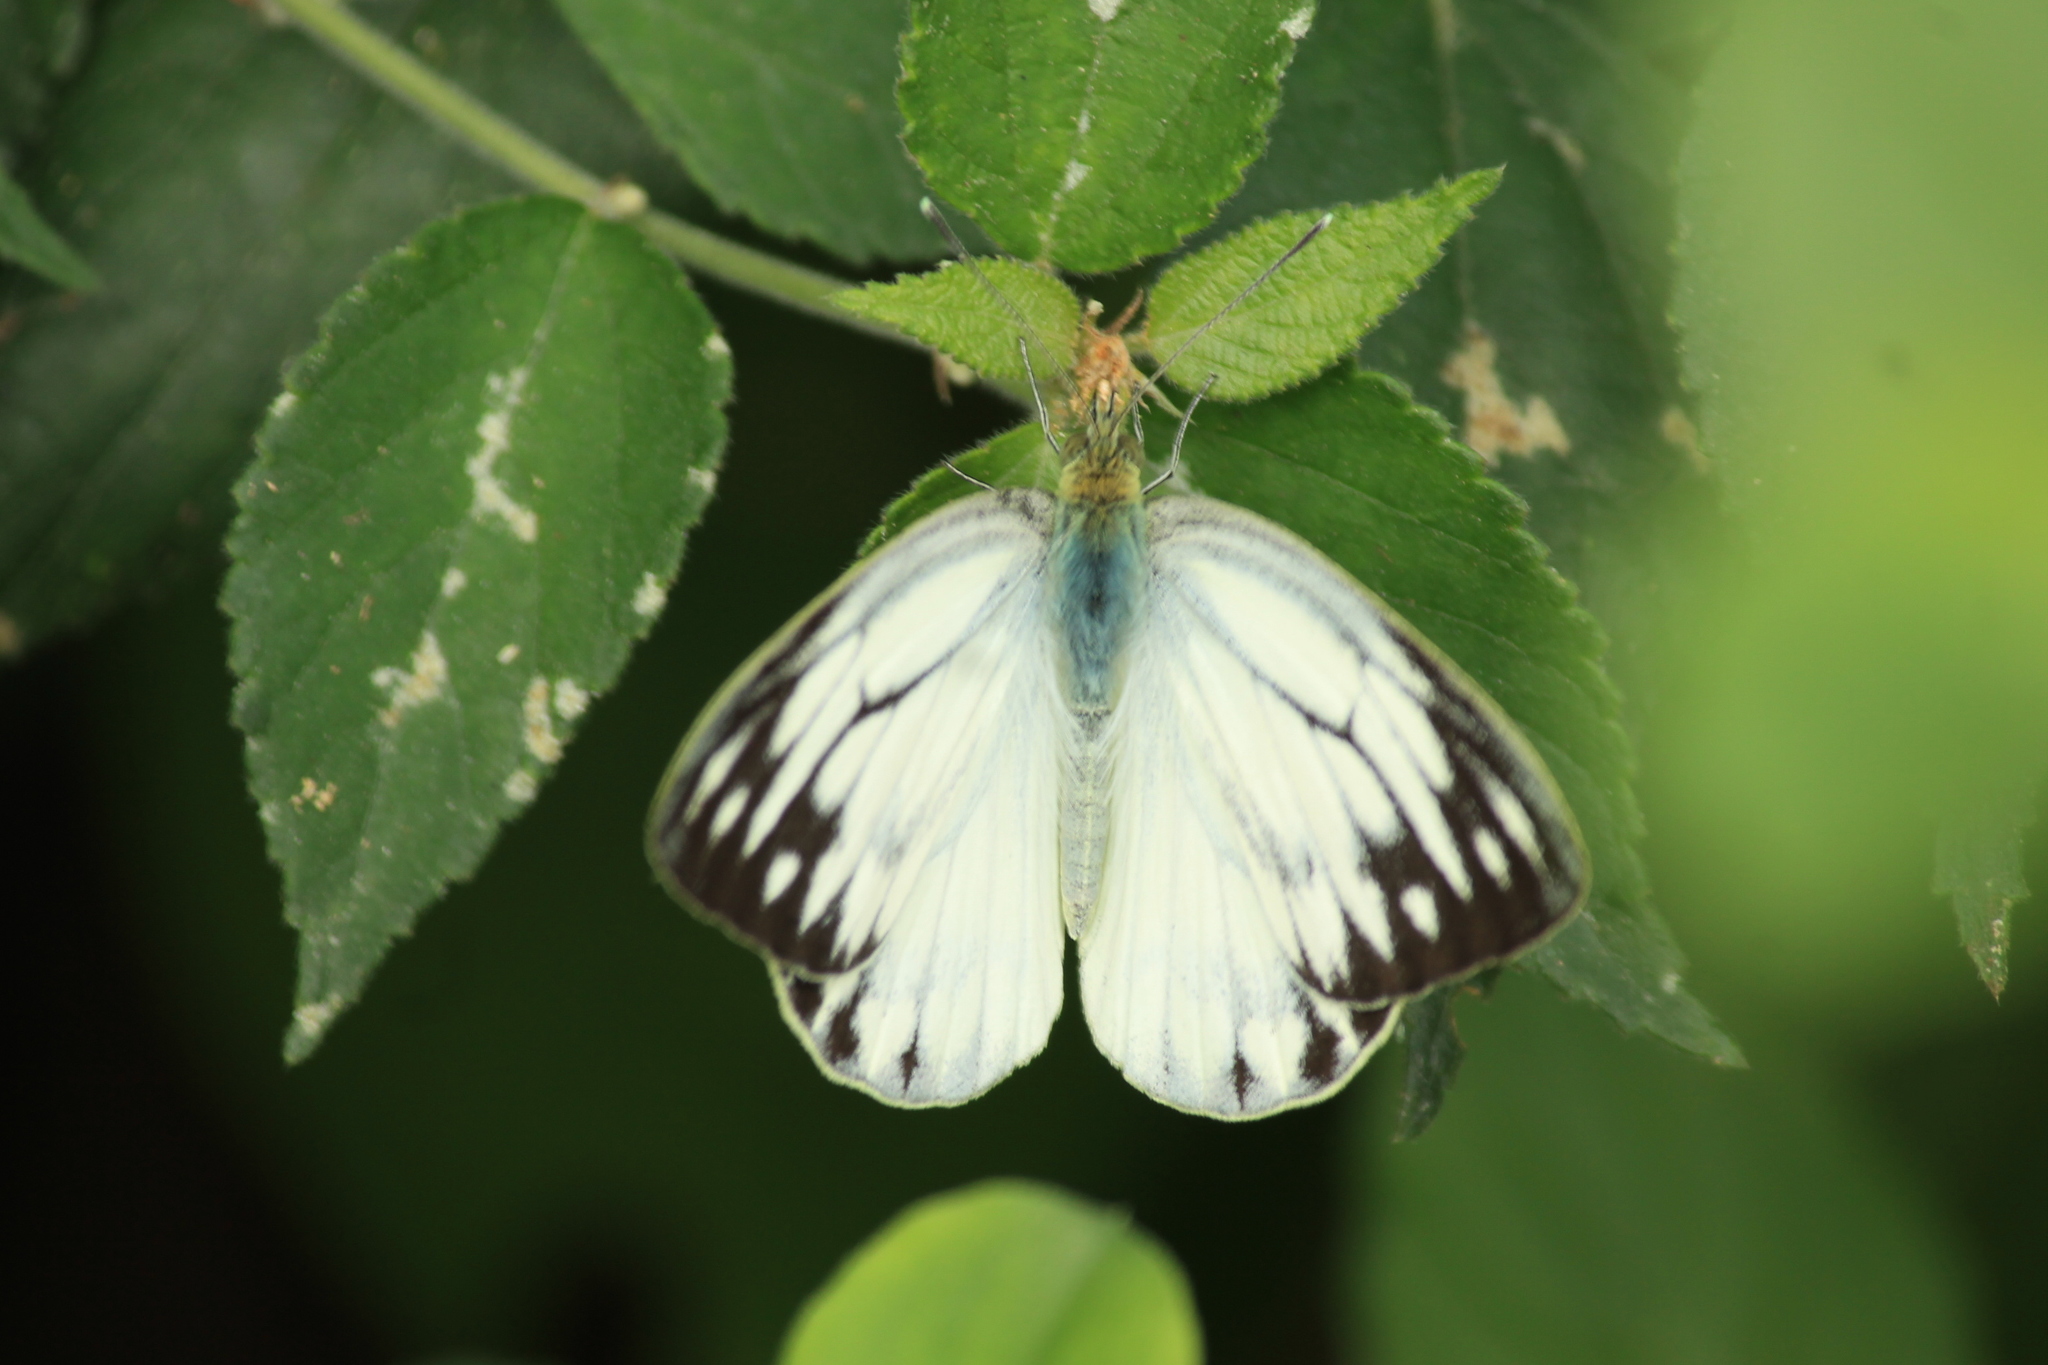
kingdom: Animalia
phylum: Arthropoda
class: Insecta
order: Lepidoptera
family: Pieridae
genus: Cepora
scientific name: Cepora nerissa
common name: Common gull
